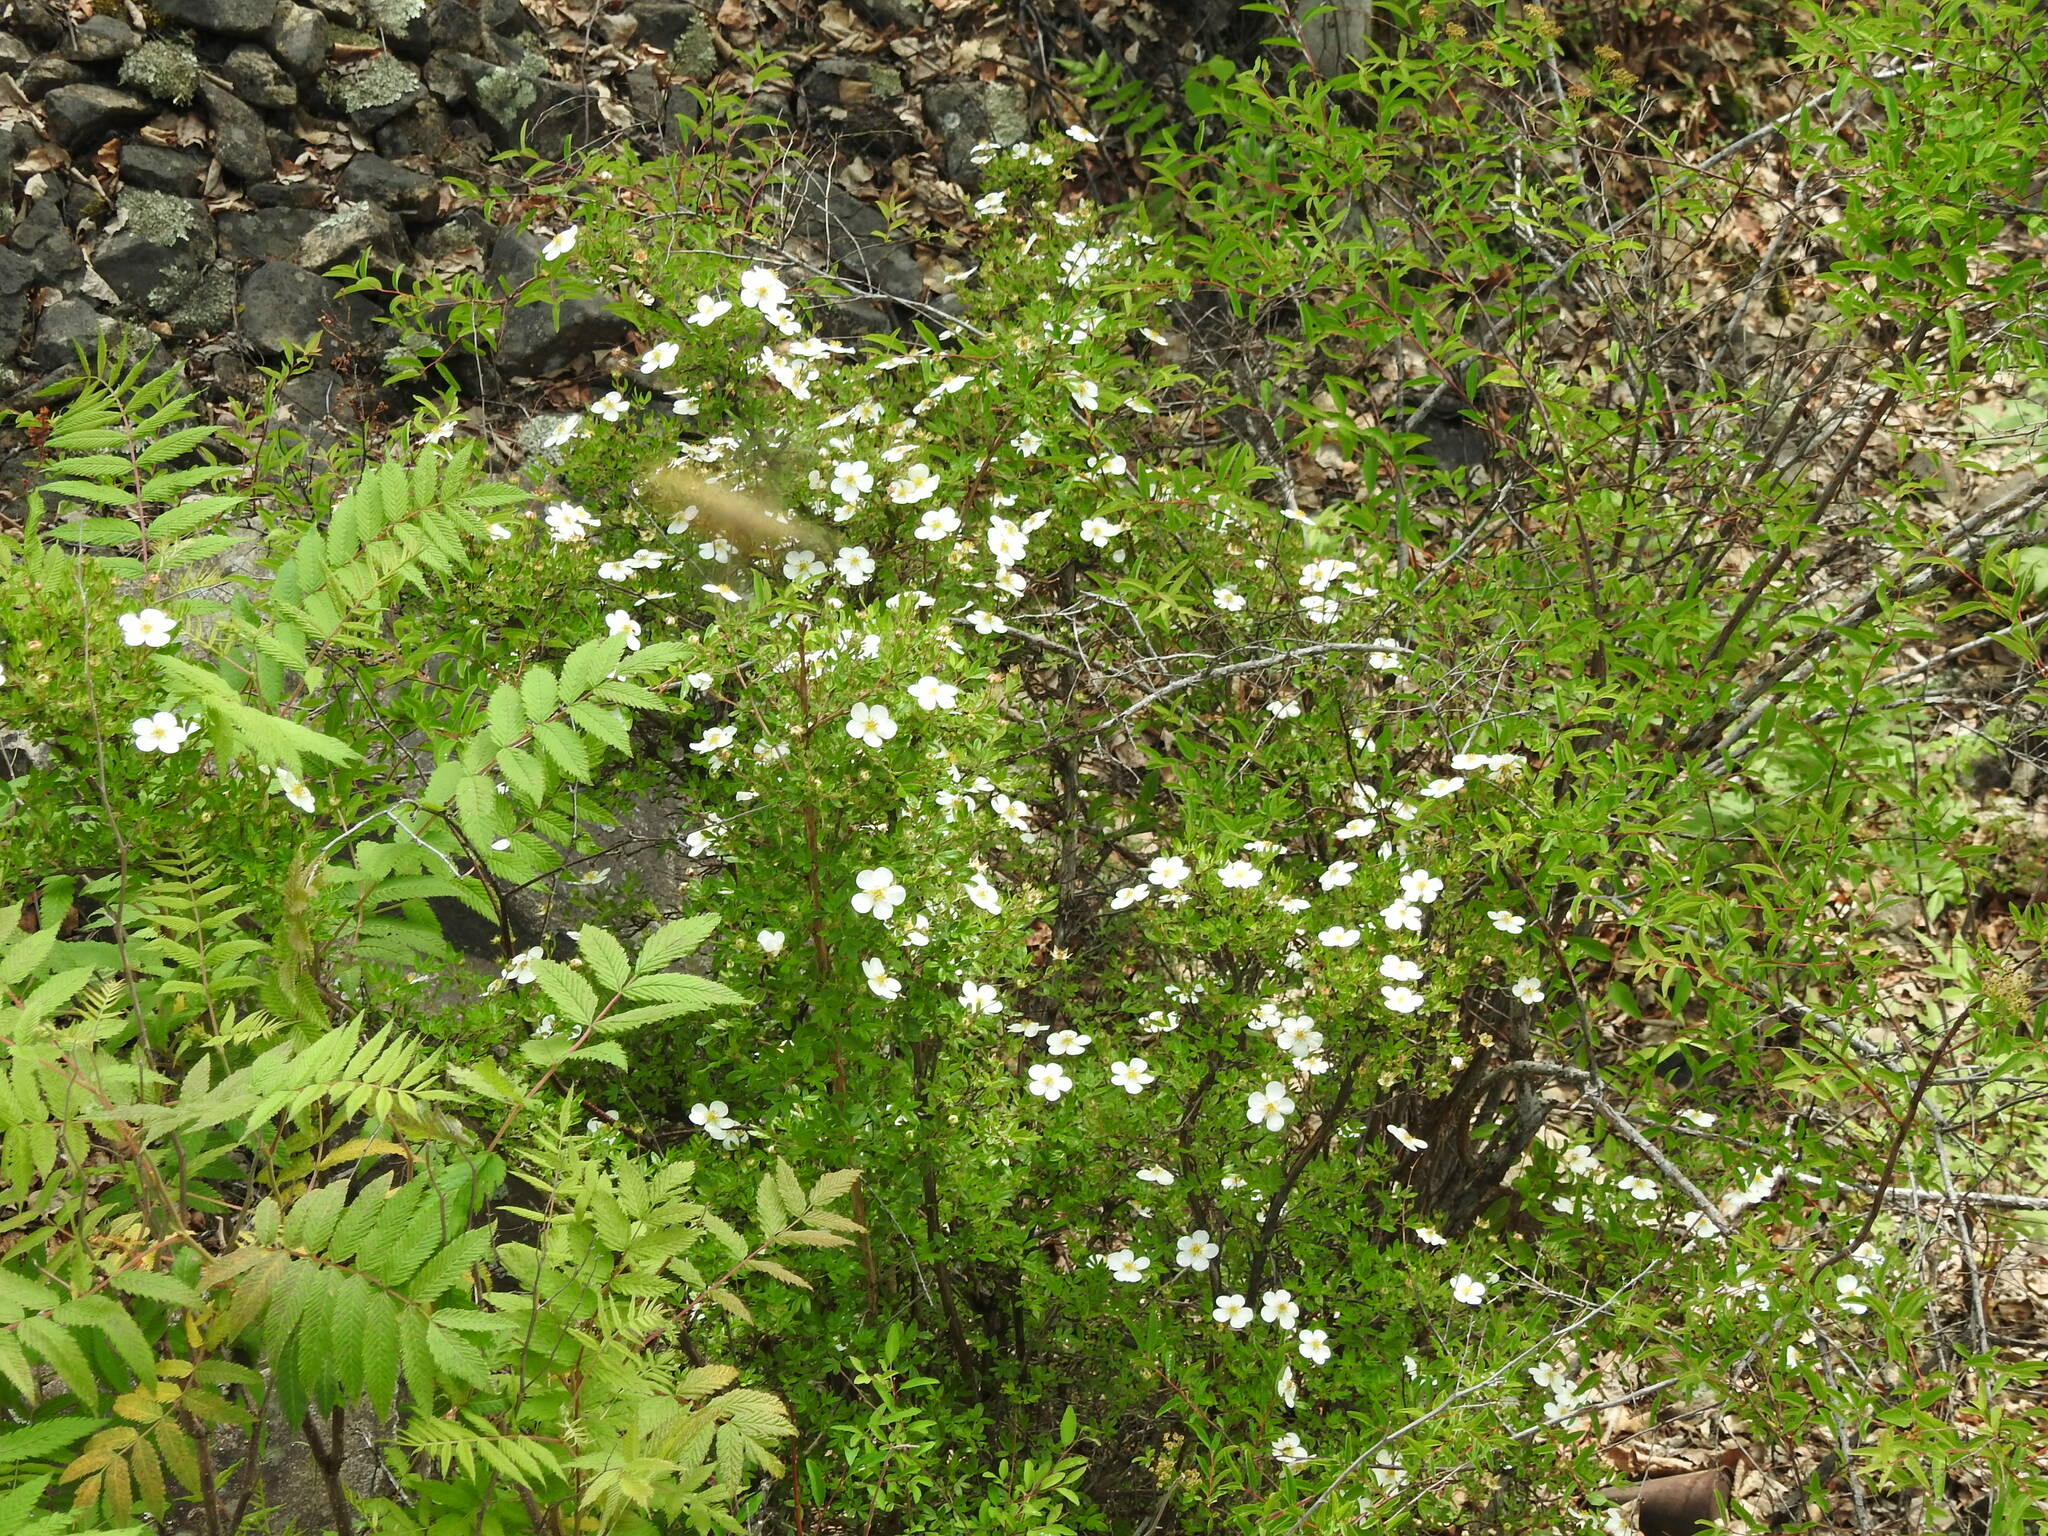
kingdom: Plantae
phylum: Tracheophyta
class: Magnoliopsida
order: Rosales
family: Rosaceae
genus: Dasiphora
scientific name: Dasiphora davurica
